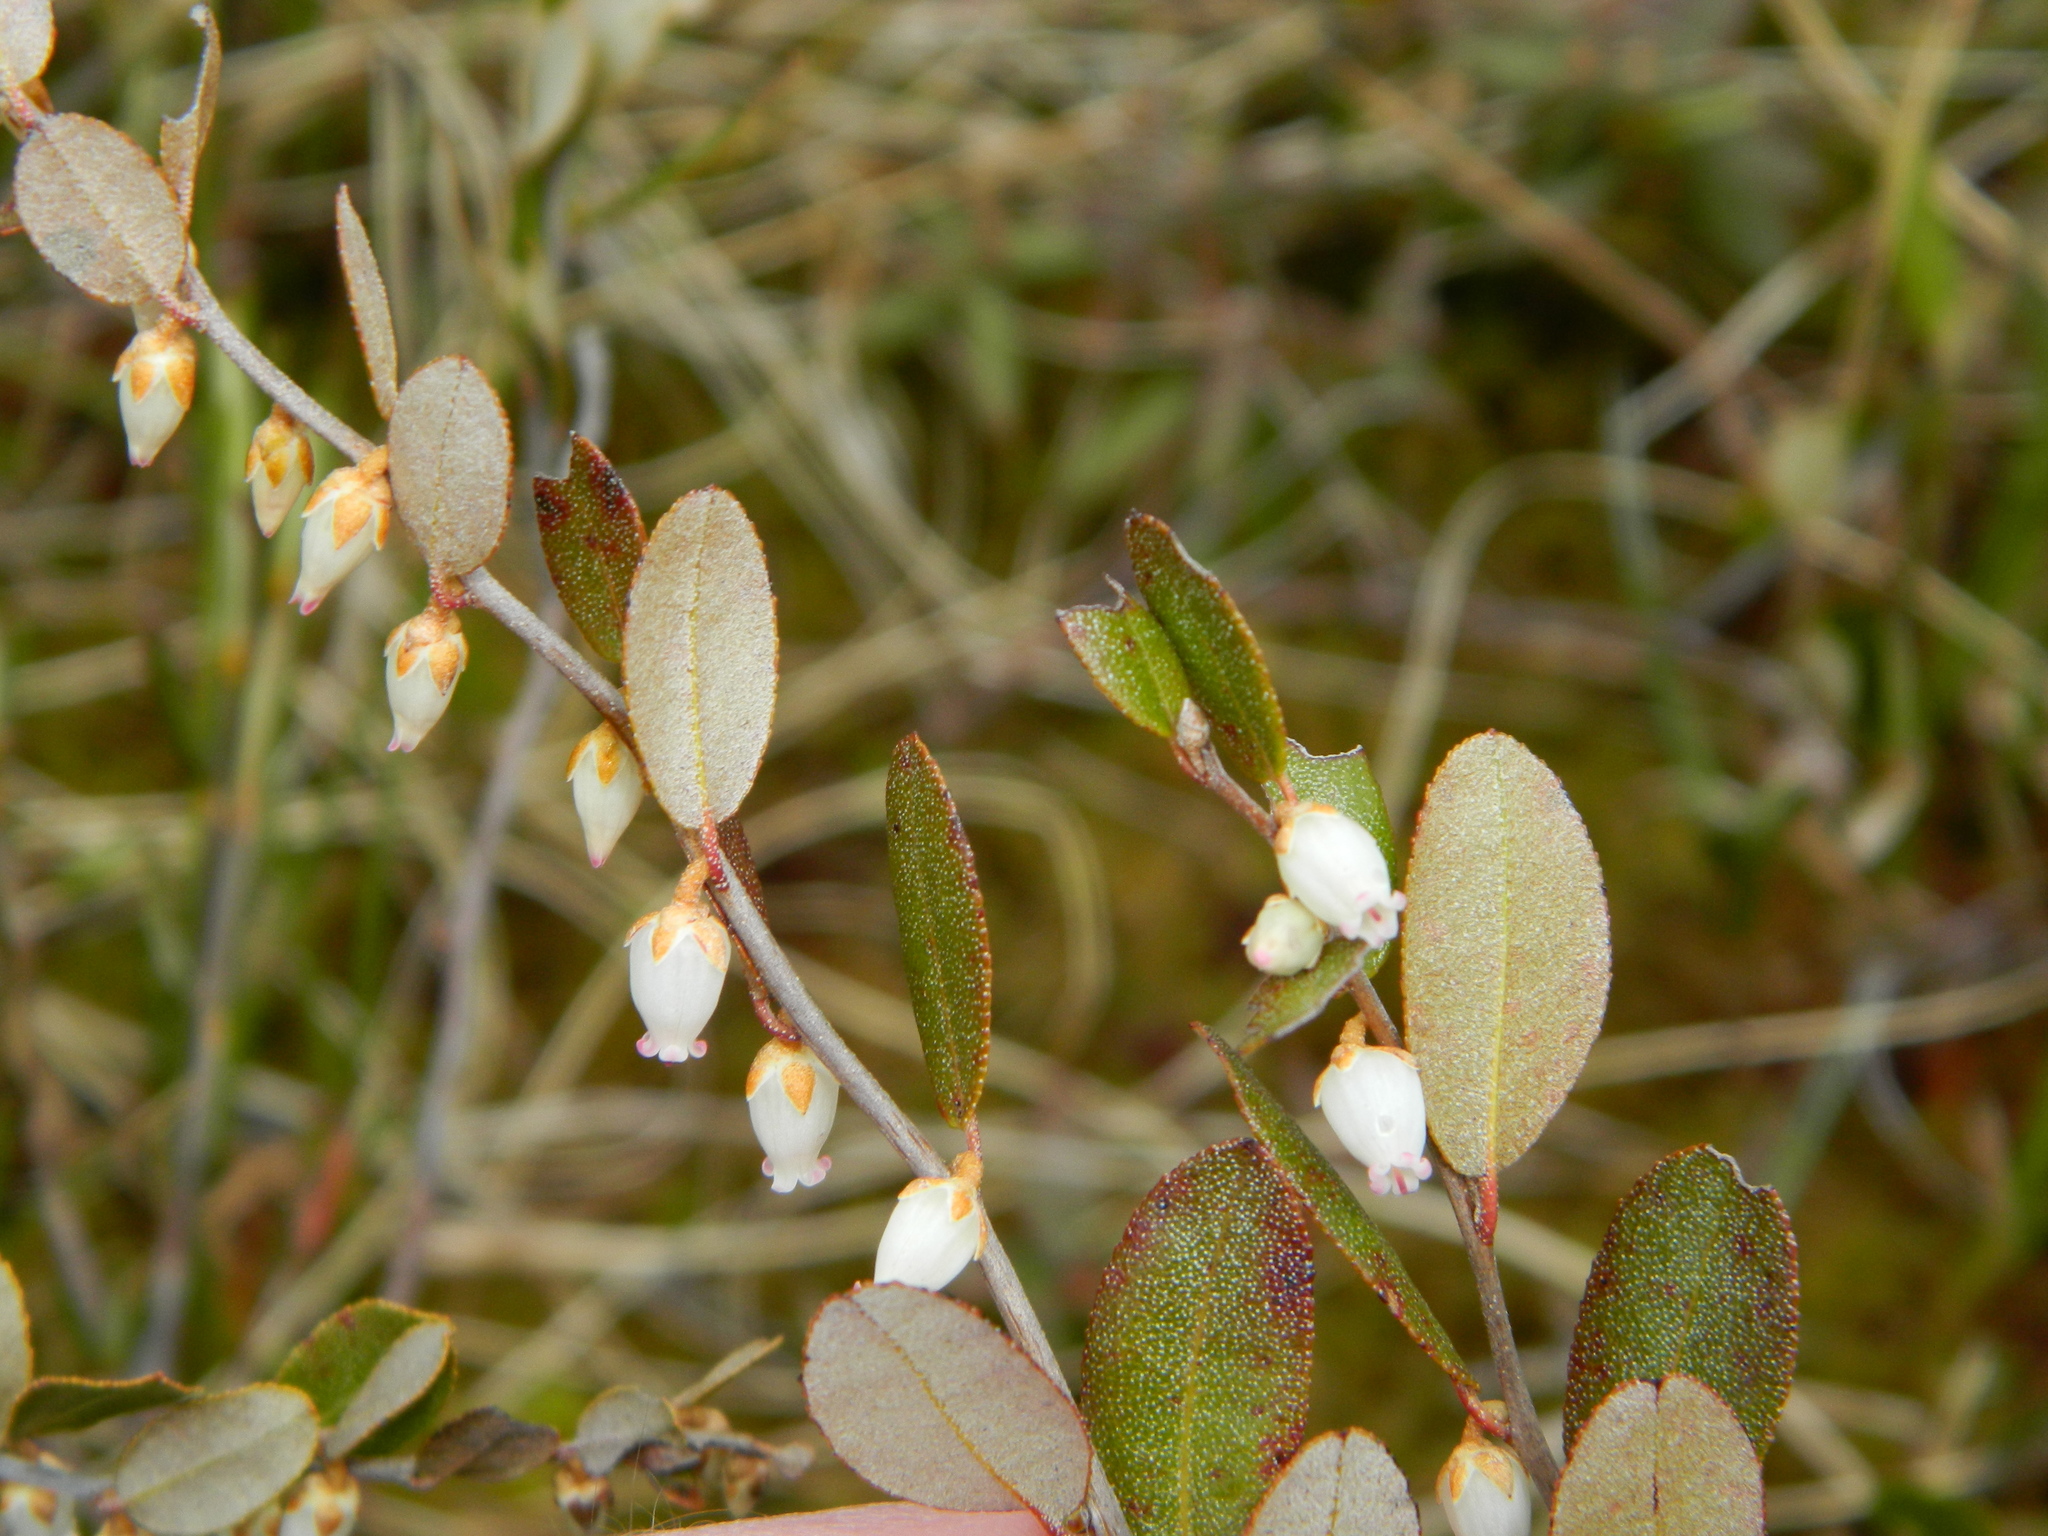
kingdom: Plantae
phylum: Tracheophyta
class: Magnoliopsida
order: Ericales
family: Ericaceae
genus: Chamaedaphne
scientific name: Chamaedaphne calyculata
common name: Leatherleaf
